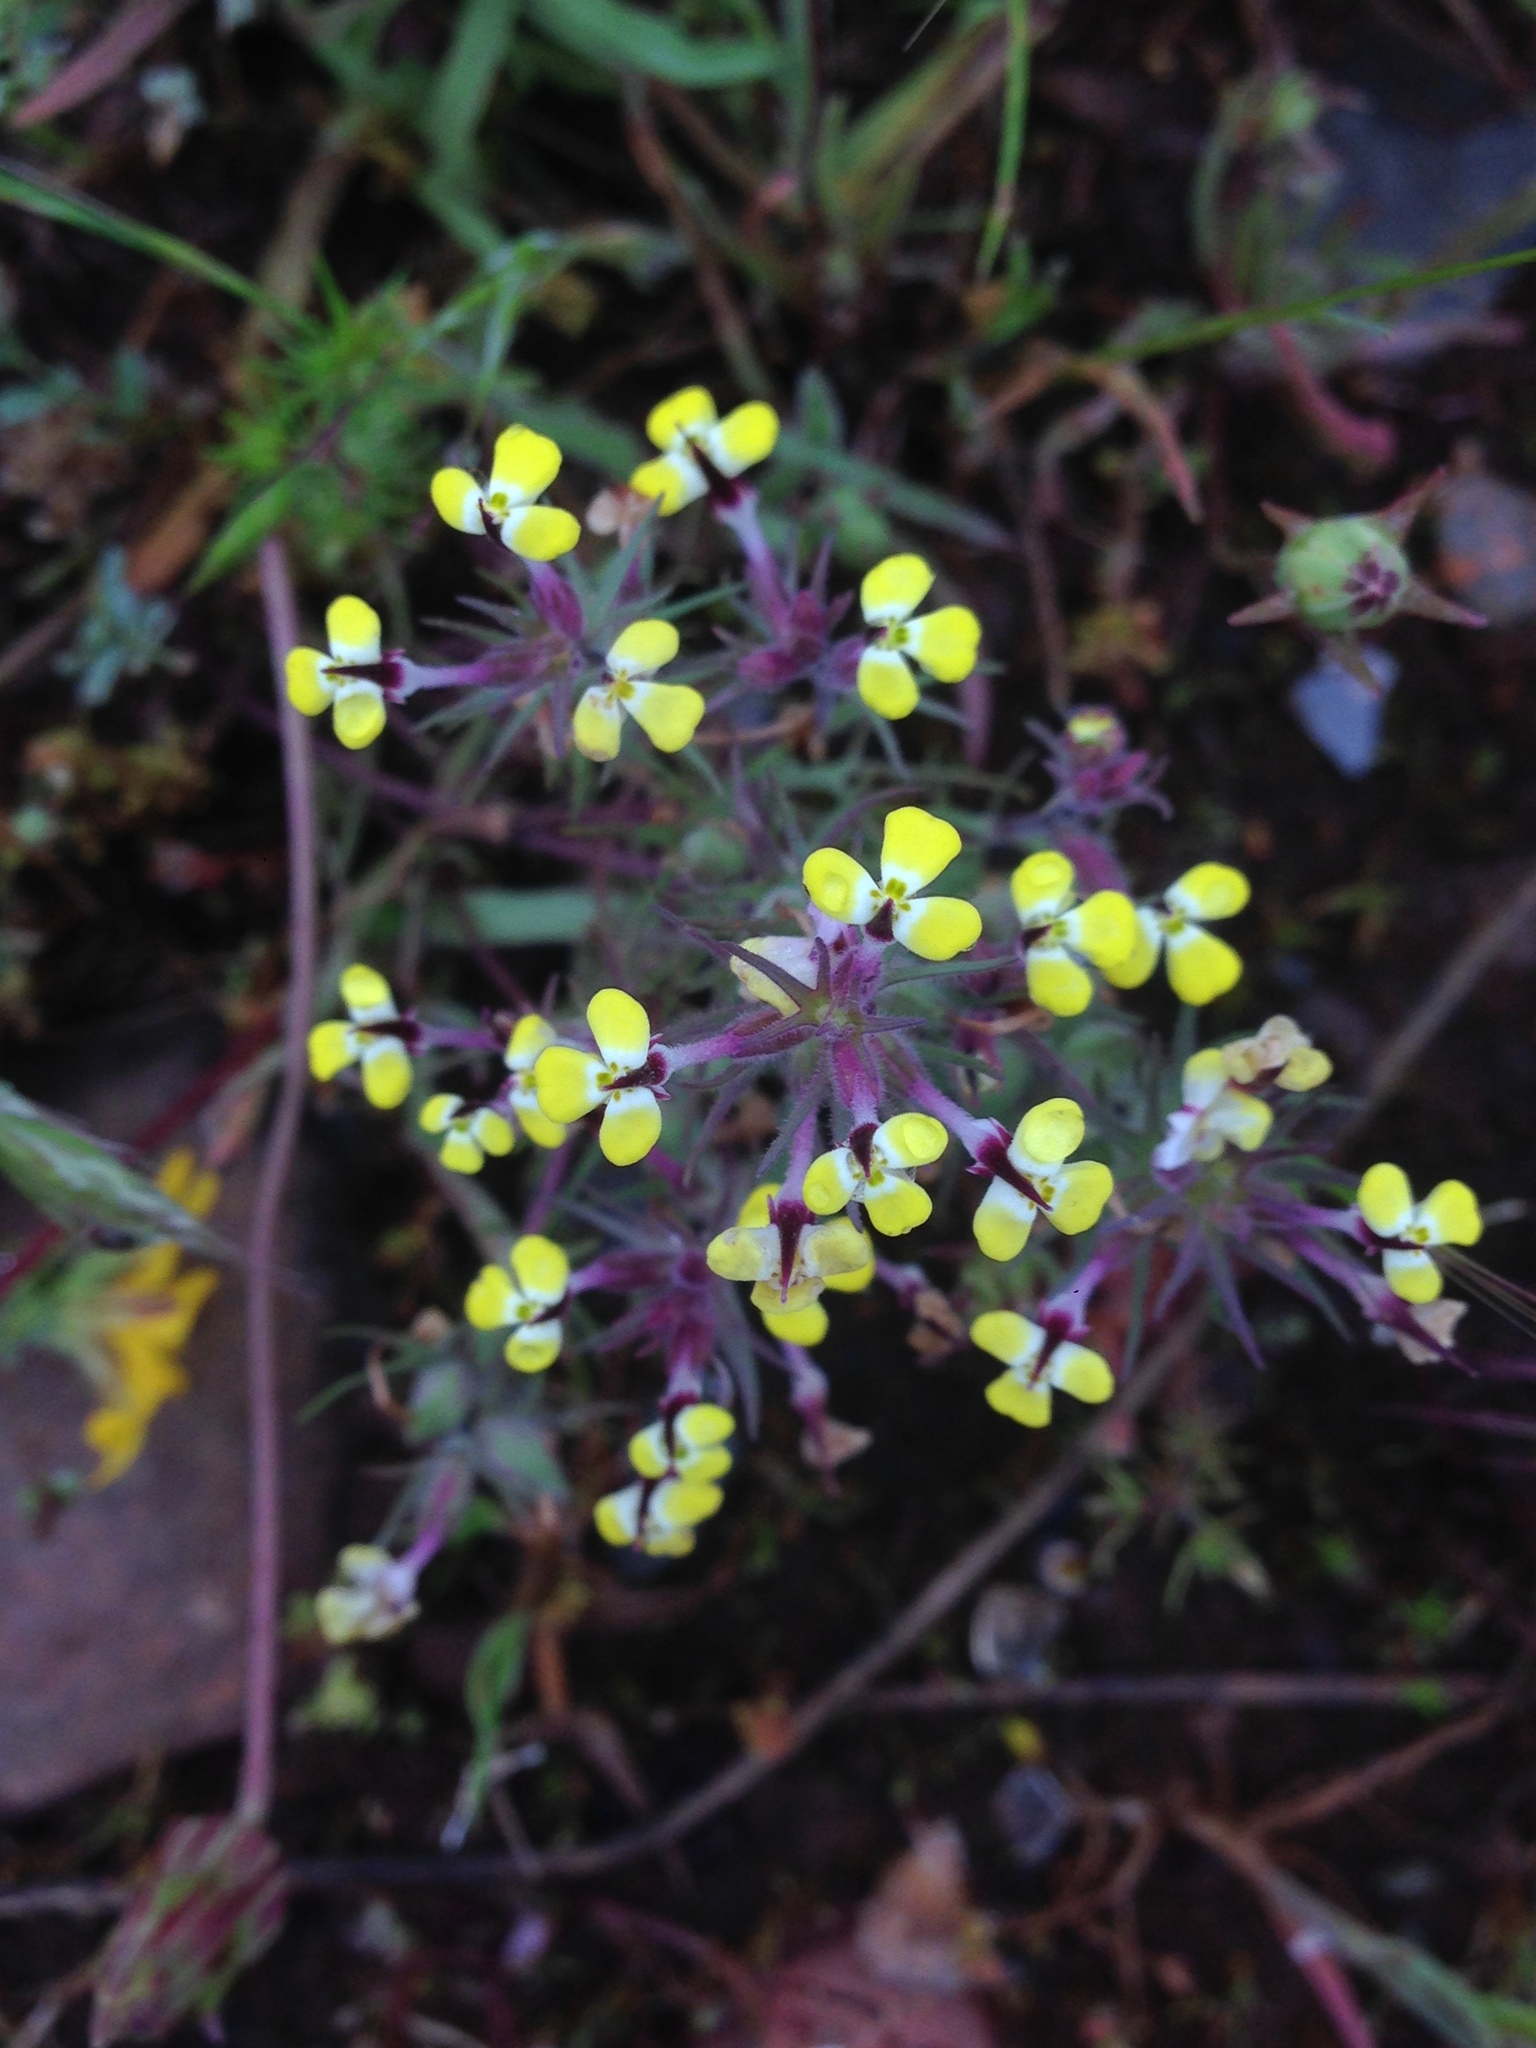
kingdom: Plantae
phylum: Tracheophyta
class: Magnoliopsida
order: Lamiales
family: Orobanchaceae
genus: Triphysaria
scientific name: Triphysaria eriantha
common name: Johnny-tuck
